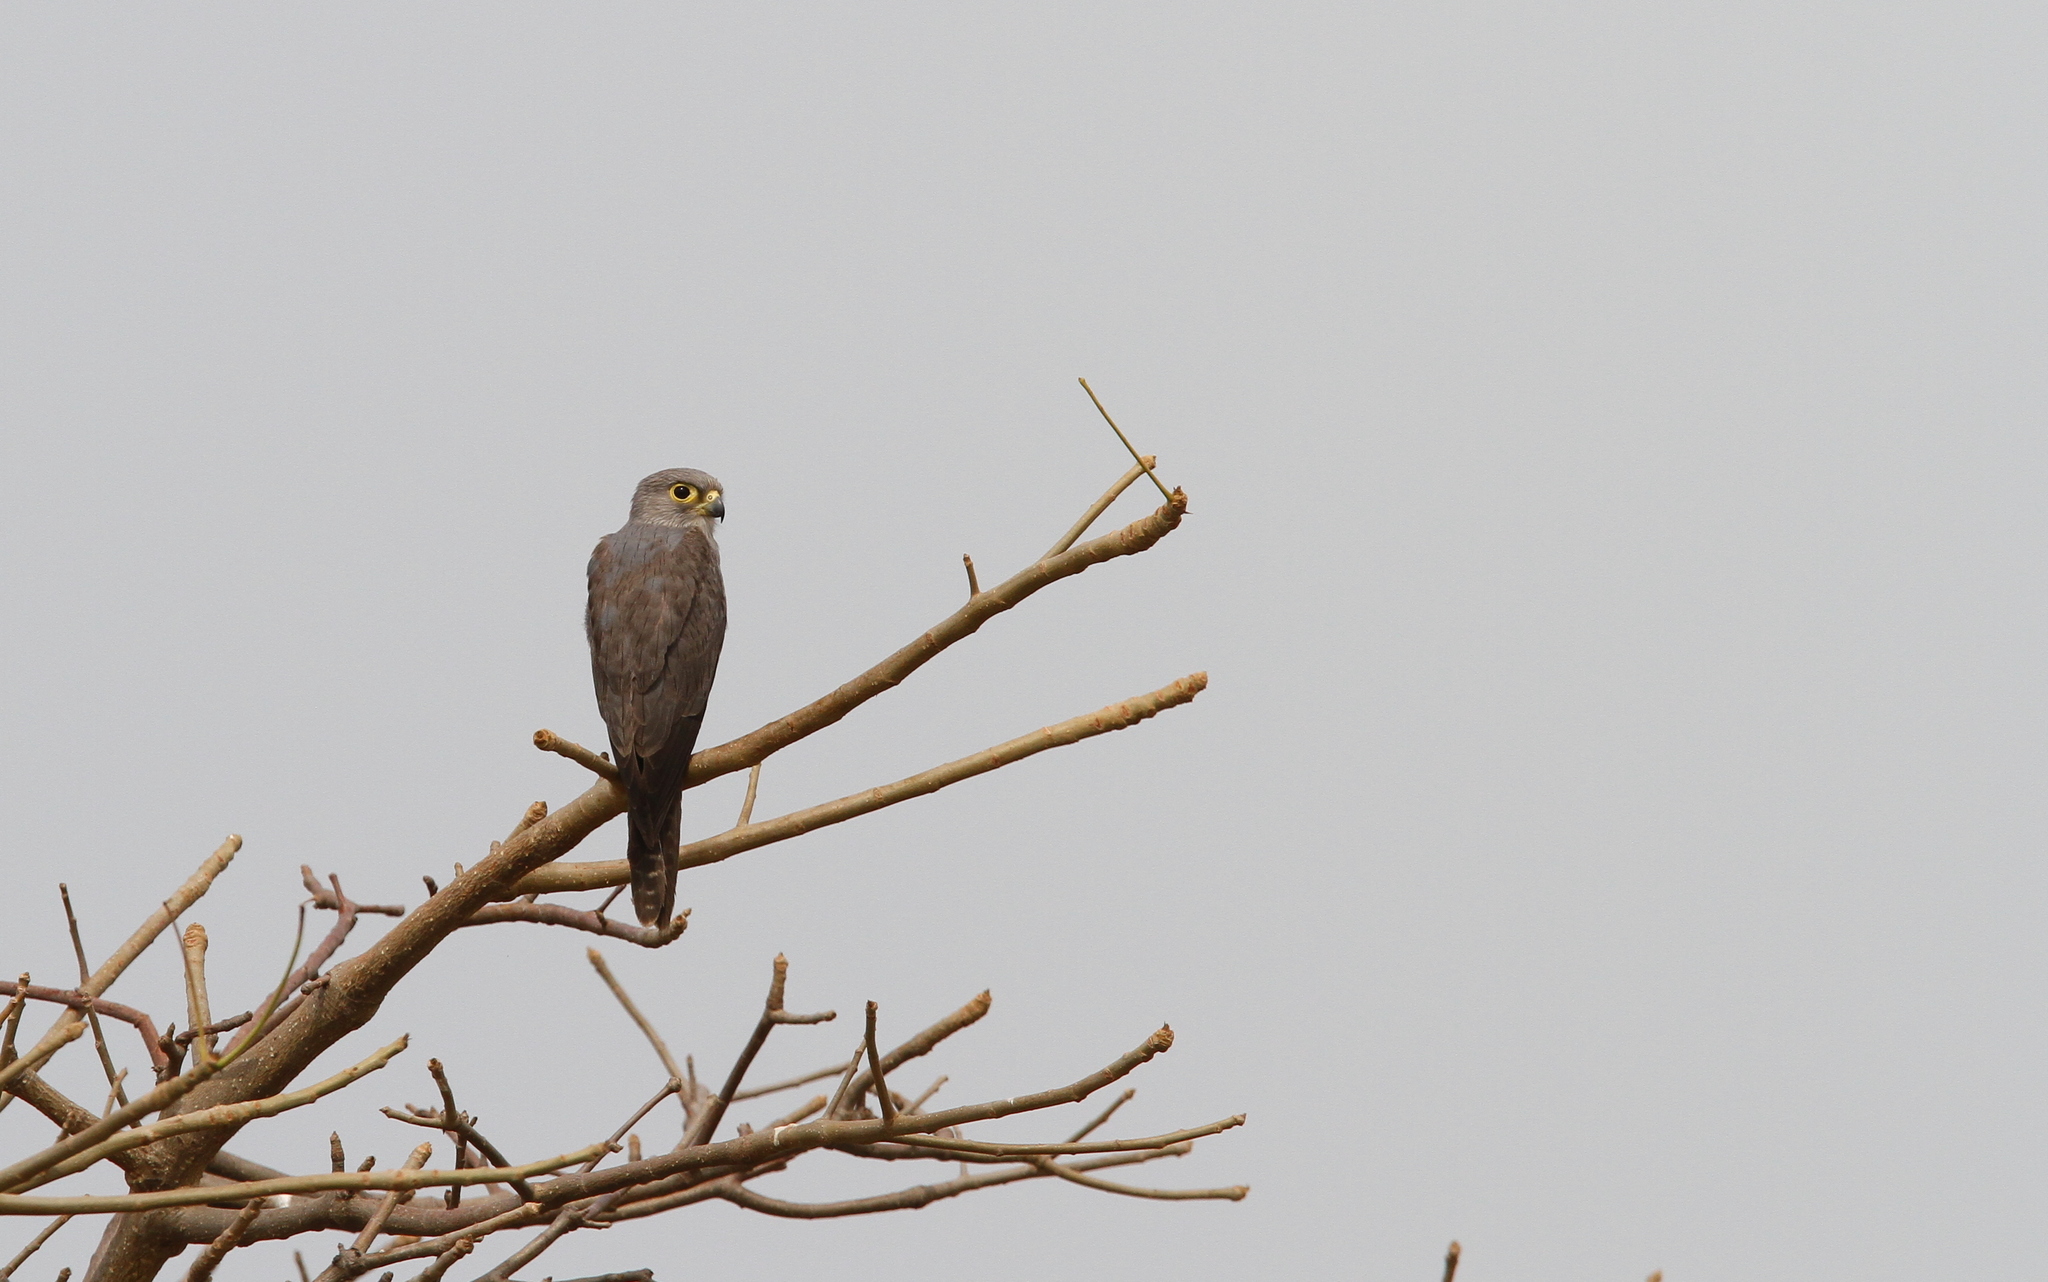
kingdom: Animalia
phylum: Chordata
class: Aves
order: Falconiformes
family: Falconidae
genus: Falco
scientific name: Falco ardosiaceus
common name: Grey kestrel
